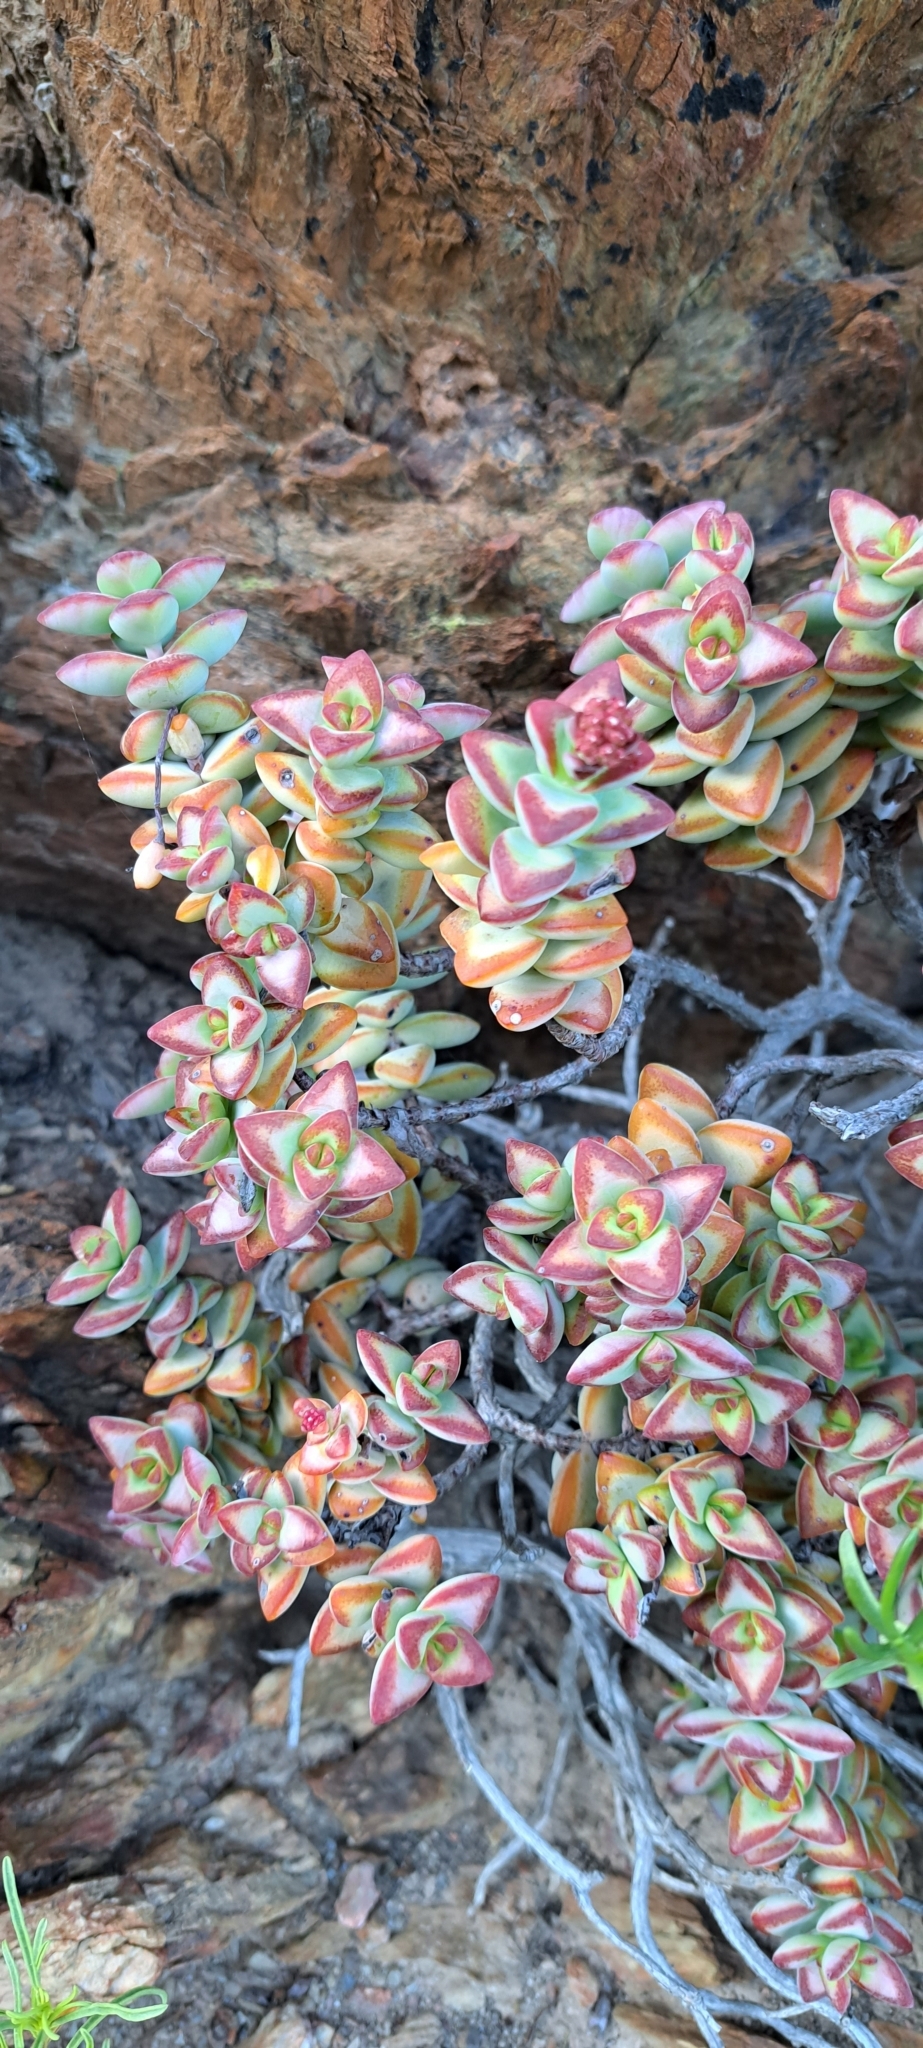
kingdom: Plantae
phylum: Tracheophyta
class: Magnoliopsida
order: Saxifragales
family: Crassulaceae
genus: Crassula
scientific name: Crassula rupestris
